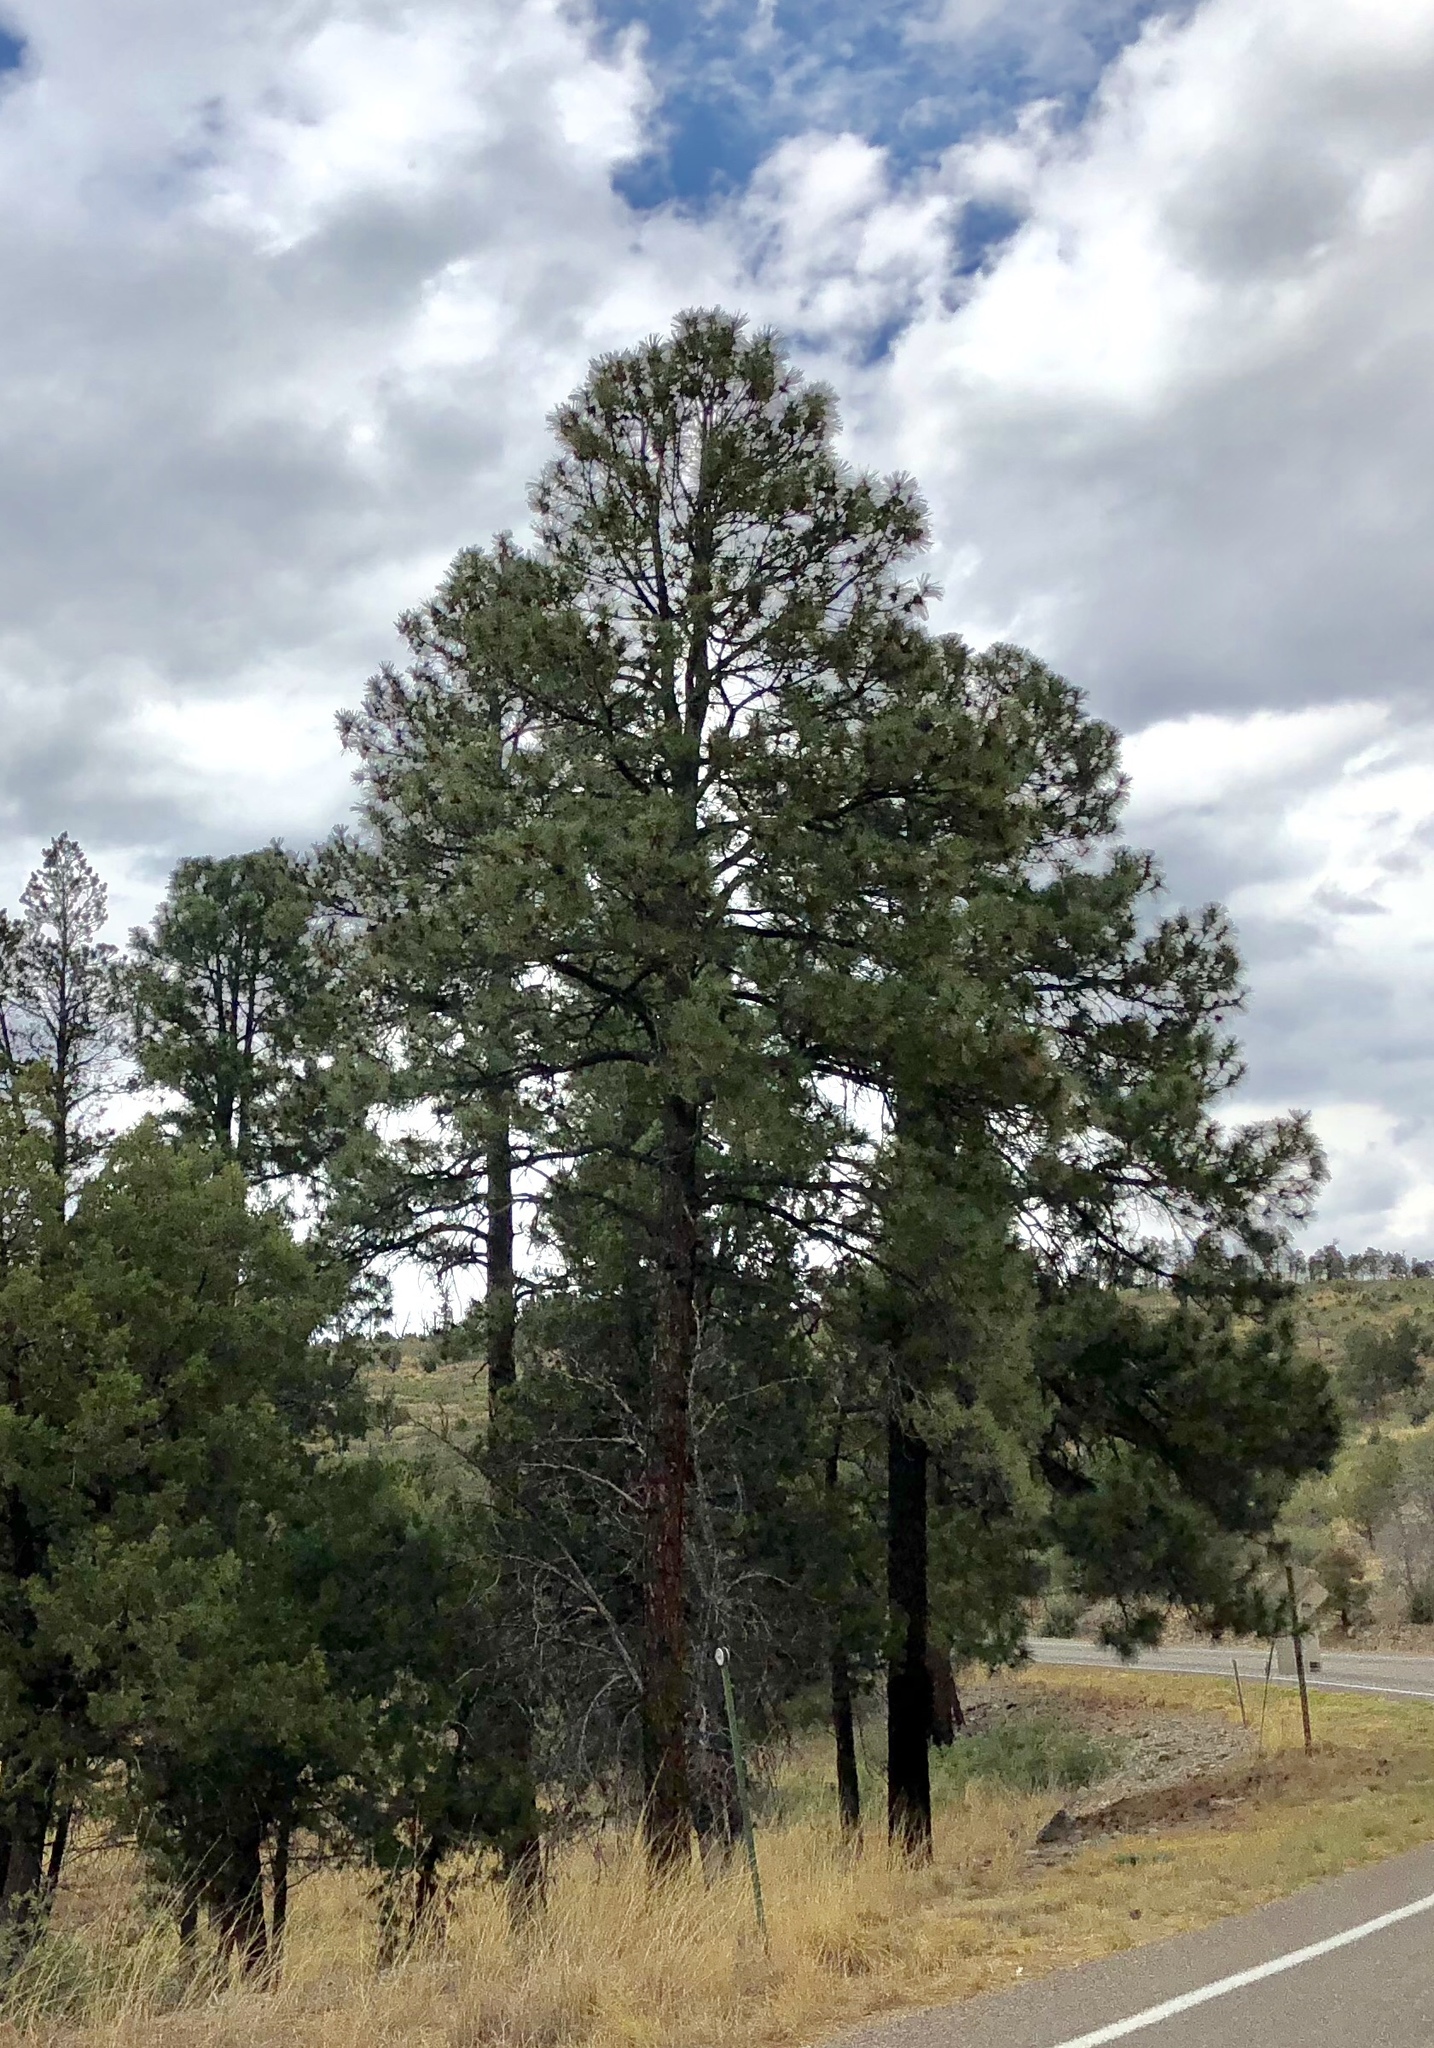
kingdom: Plantae
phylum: Tracheophyta
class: Pinopsida
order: Pinales
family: Pinaceae
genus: Pinus
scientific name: Pinus ponderosa
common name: Western yellow-pine
